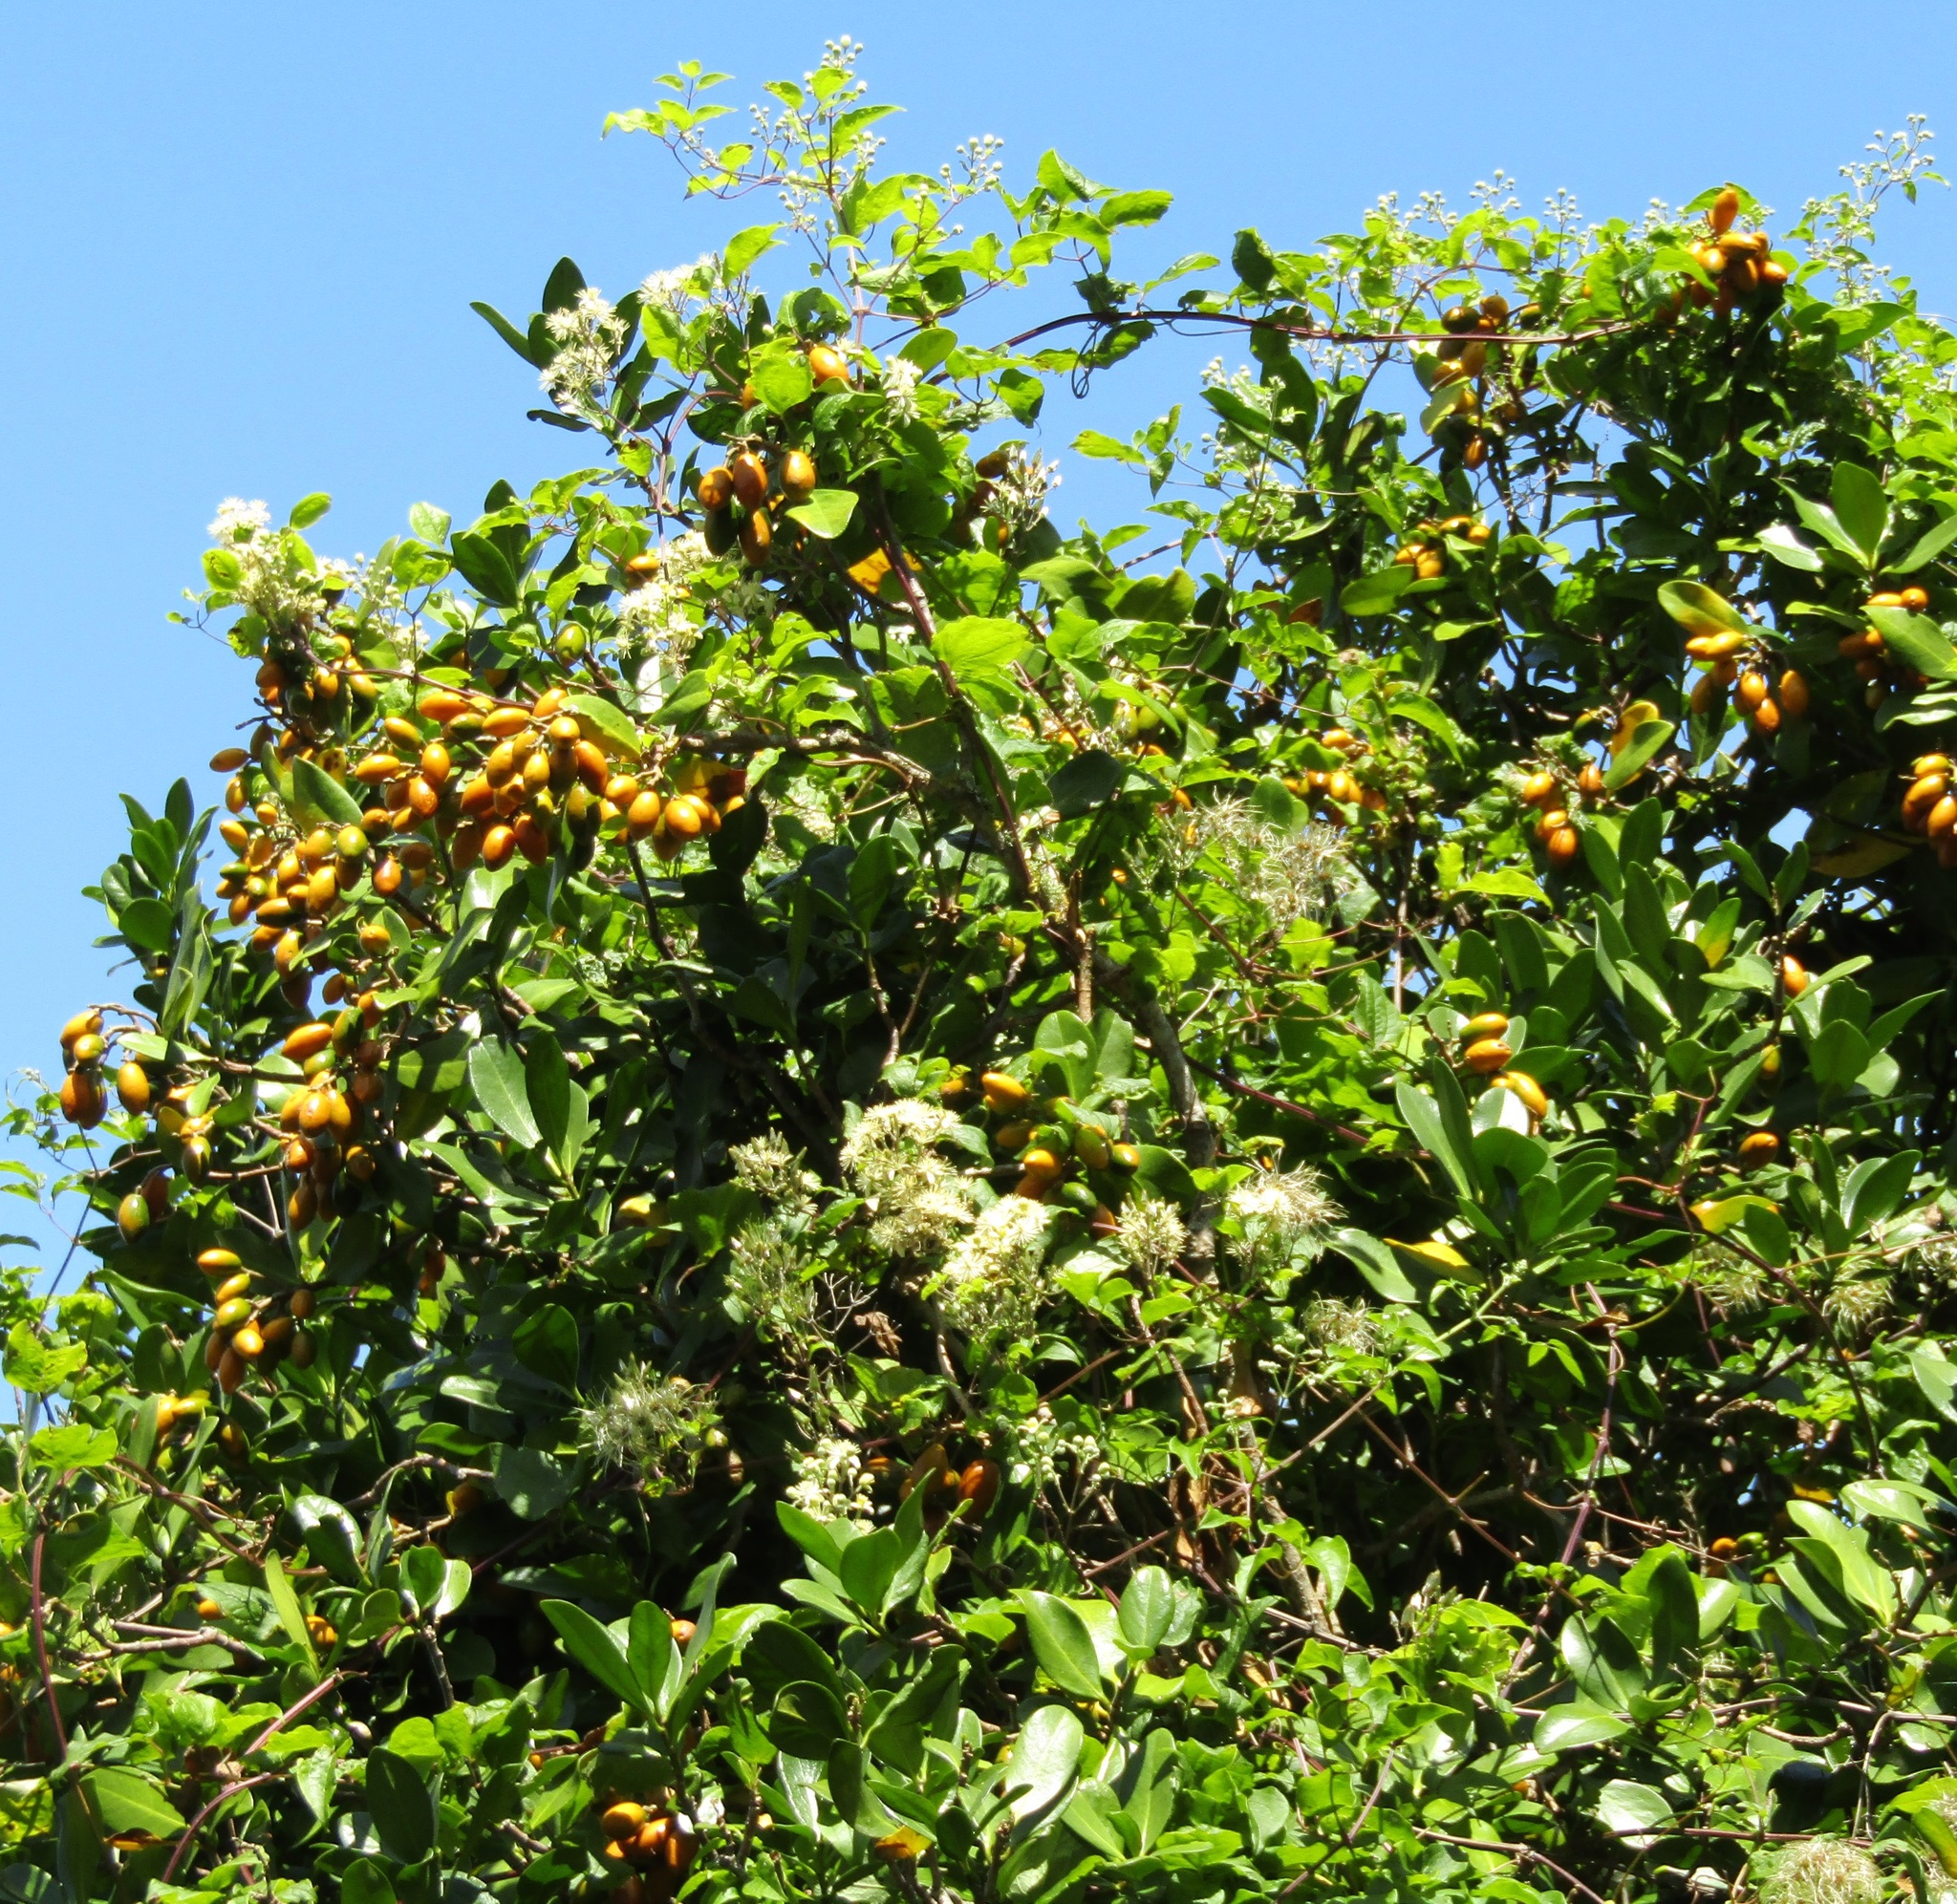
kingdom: Plantae
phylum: Tracheophyta
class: Magnoliopsida
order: Cucurbitales
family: Corynocarpaceae
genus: Corynocarpus
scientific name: Corynocarpus laevigatus
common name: New zealand laurel
